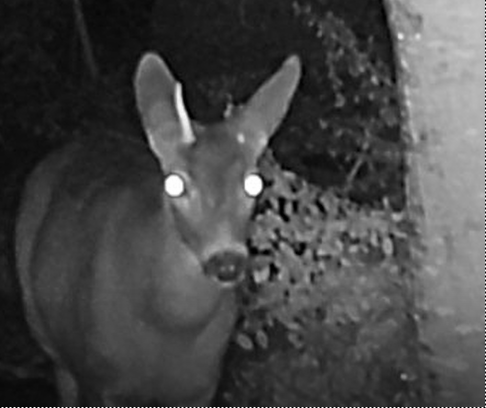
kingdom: Animalia
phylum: Chordata
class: Mammalia
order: Artiodactyla
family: Cervidae
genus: Odocoileus
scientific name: Odocoileus hemionus
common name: Mule deer
